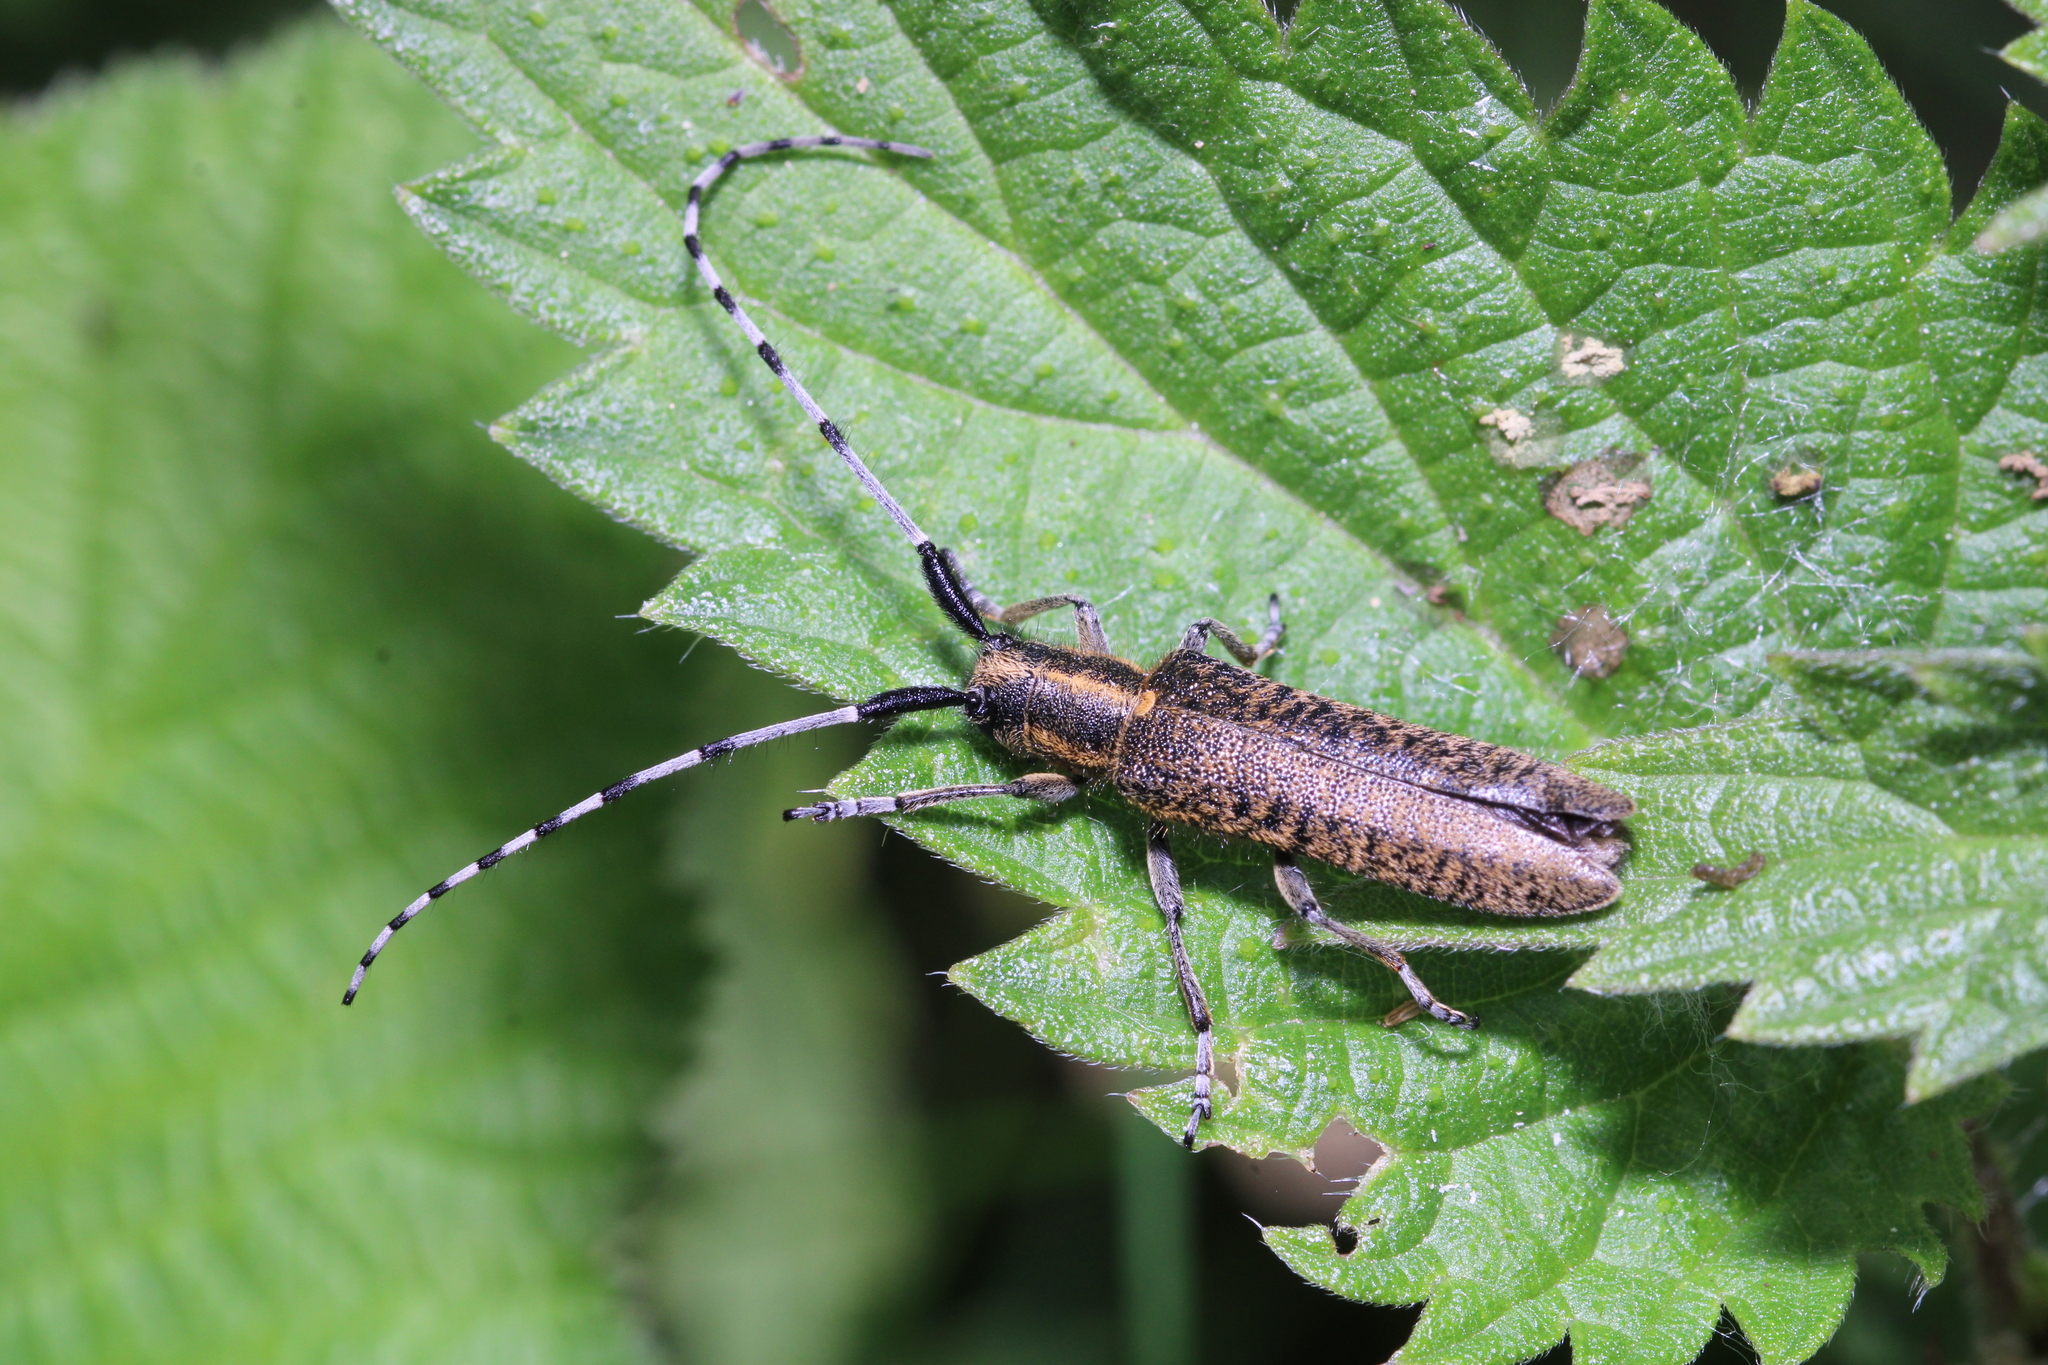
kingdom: Animalia
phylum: Arthropoda
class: Insecta
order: Coleoptera
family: Cerambycidae
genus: Agapanthia
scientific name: Agapanthia villosoviridescens
